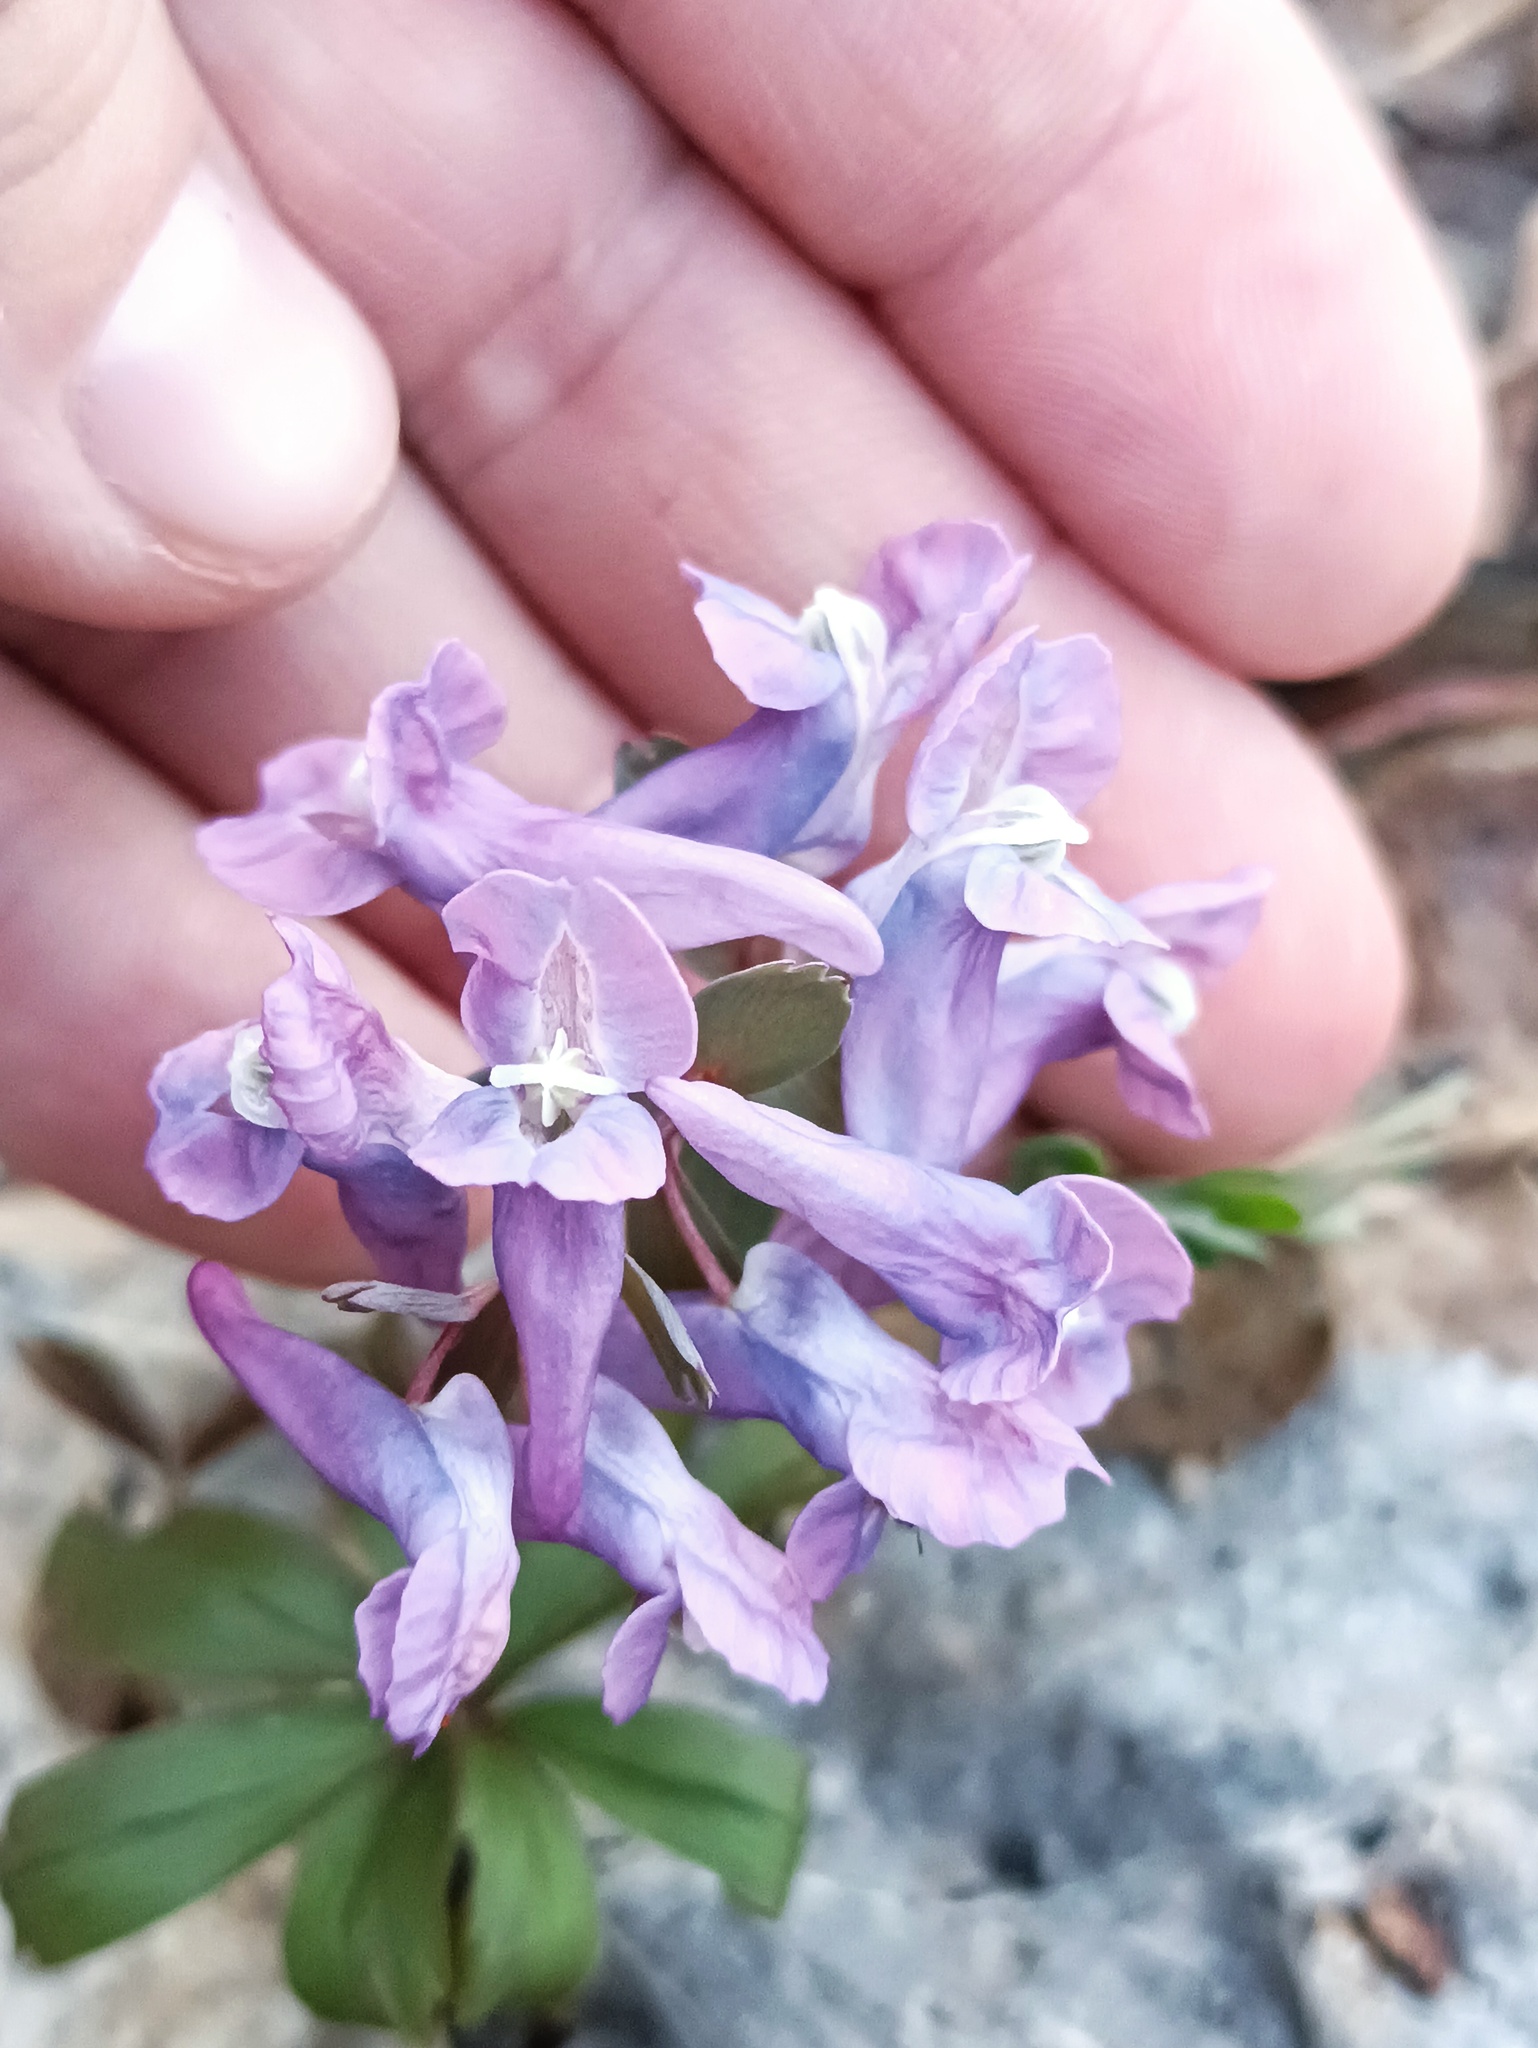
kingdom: Plantae
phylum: Tracheophyta
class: Magnoliopsida
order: Ranunculales
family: Papaveraceae
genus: Corydalis
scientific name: Corydalis solida
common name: Bird-in-a-bush
